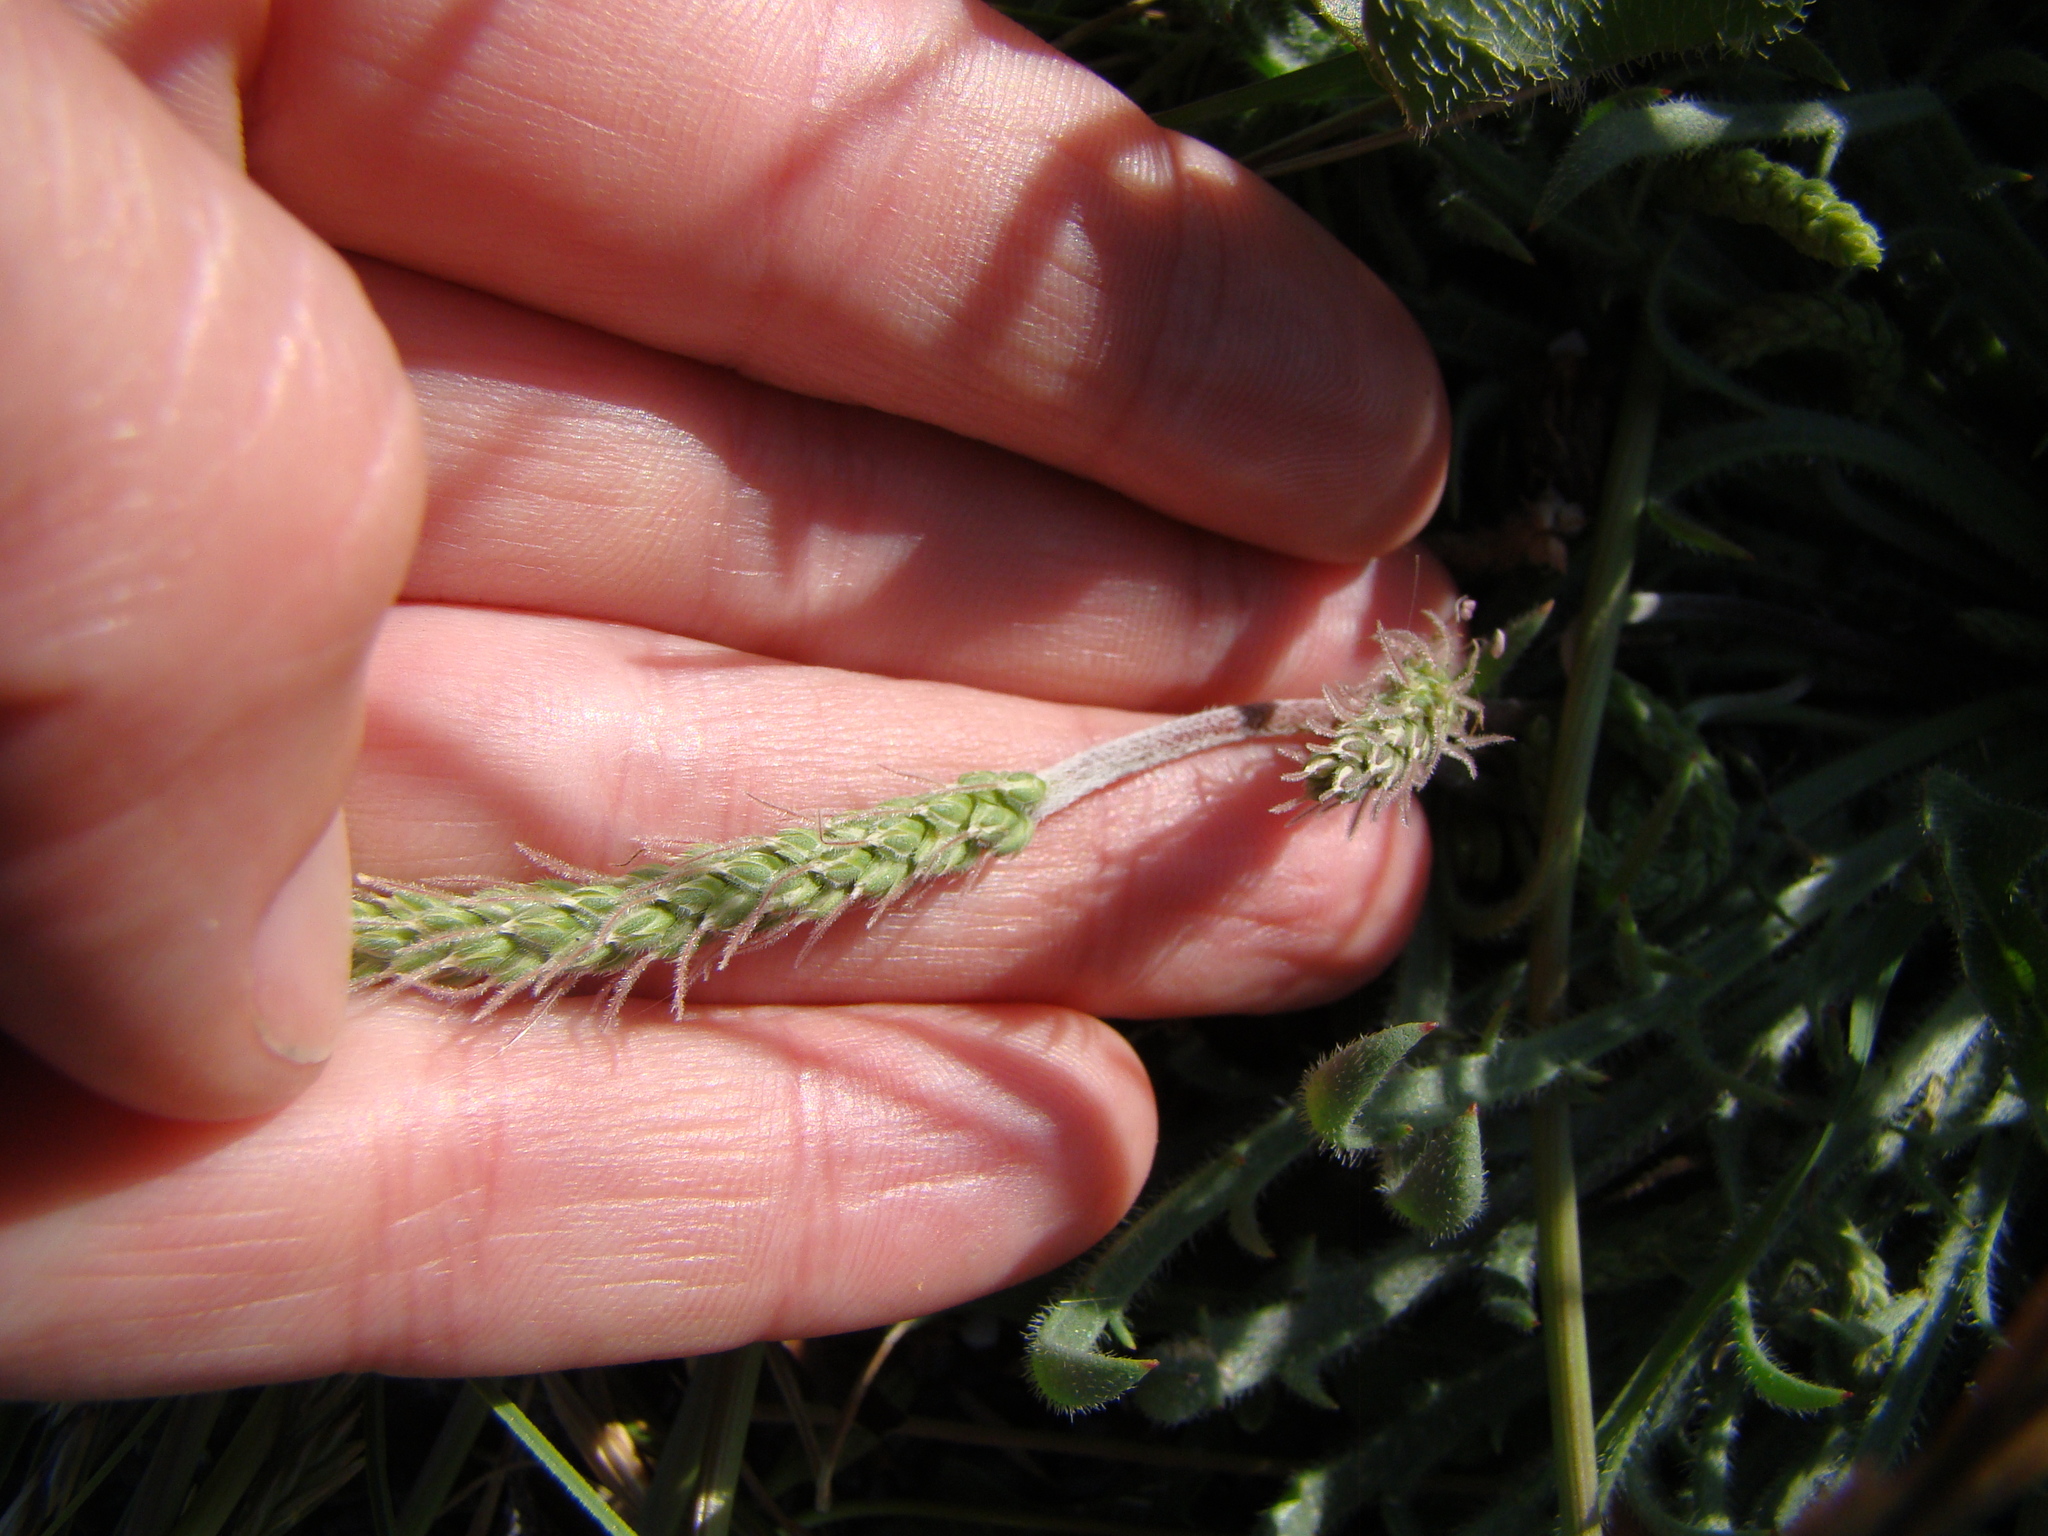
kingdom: Plantae
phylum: Tracheophyta
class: Magnoliopsida
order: Lamiales
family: Plantaginaceae
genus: Plantago
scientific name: Plantago coronopus
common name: Buck's-horn plantain
